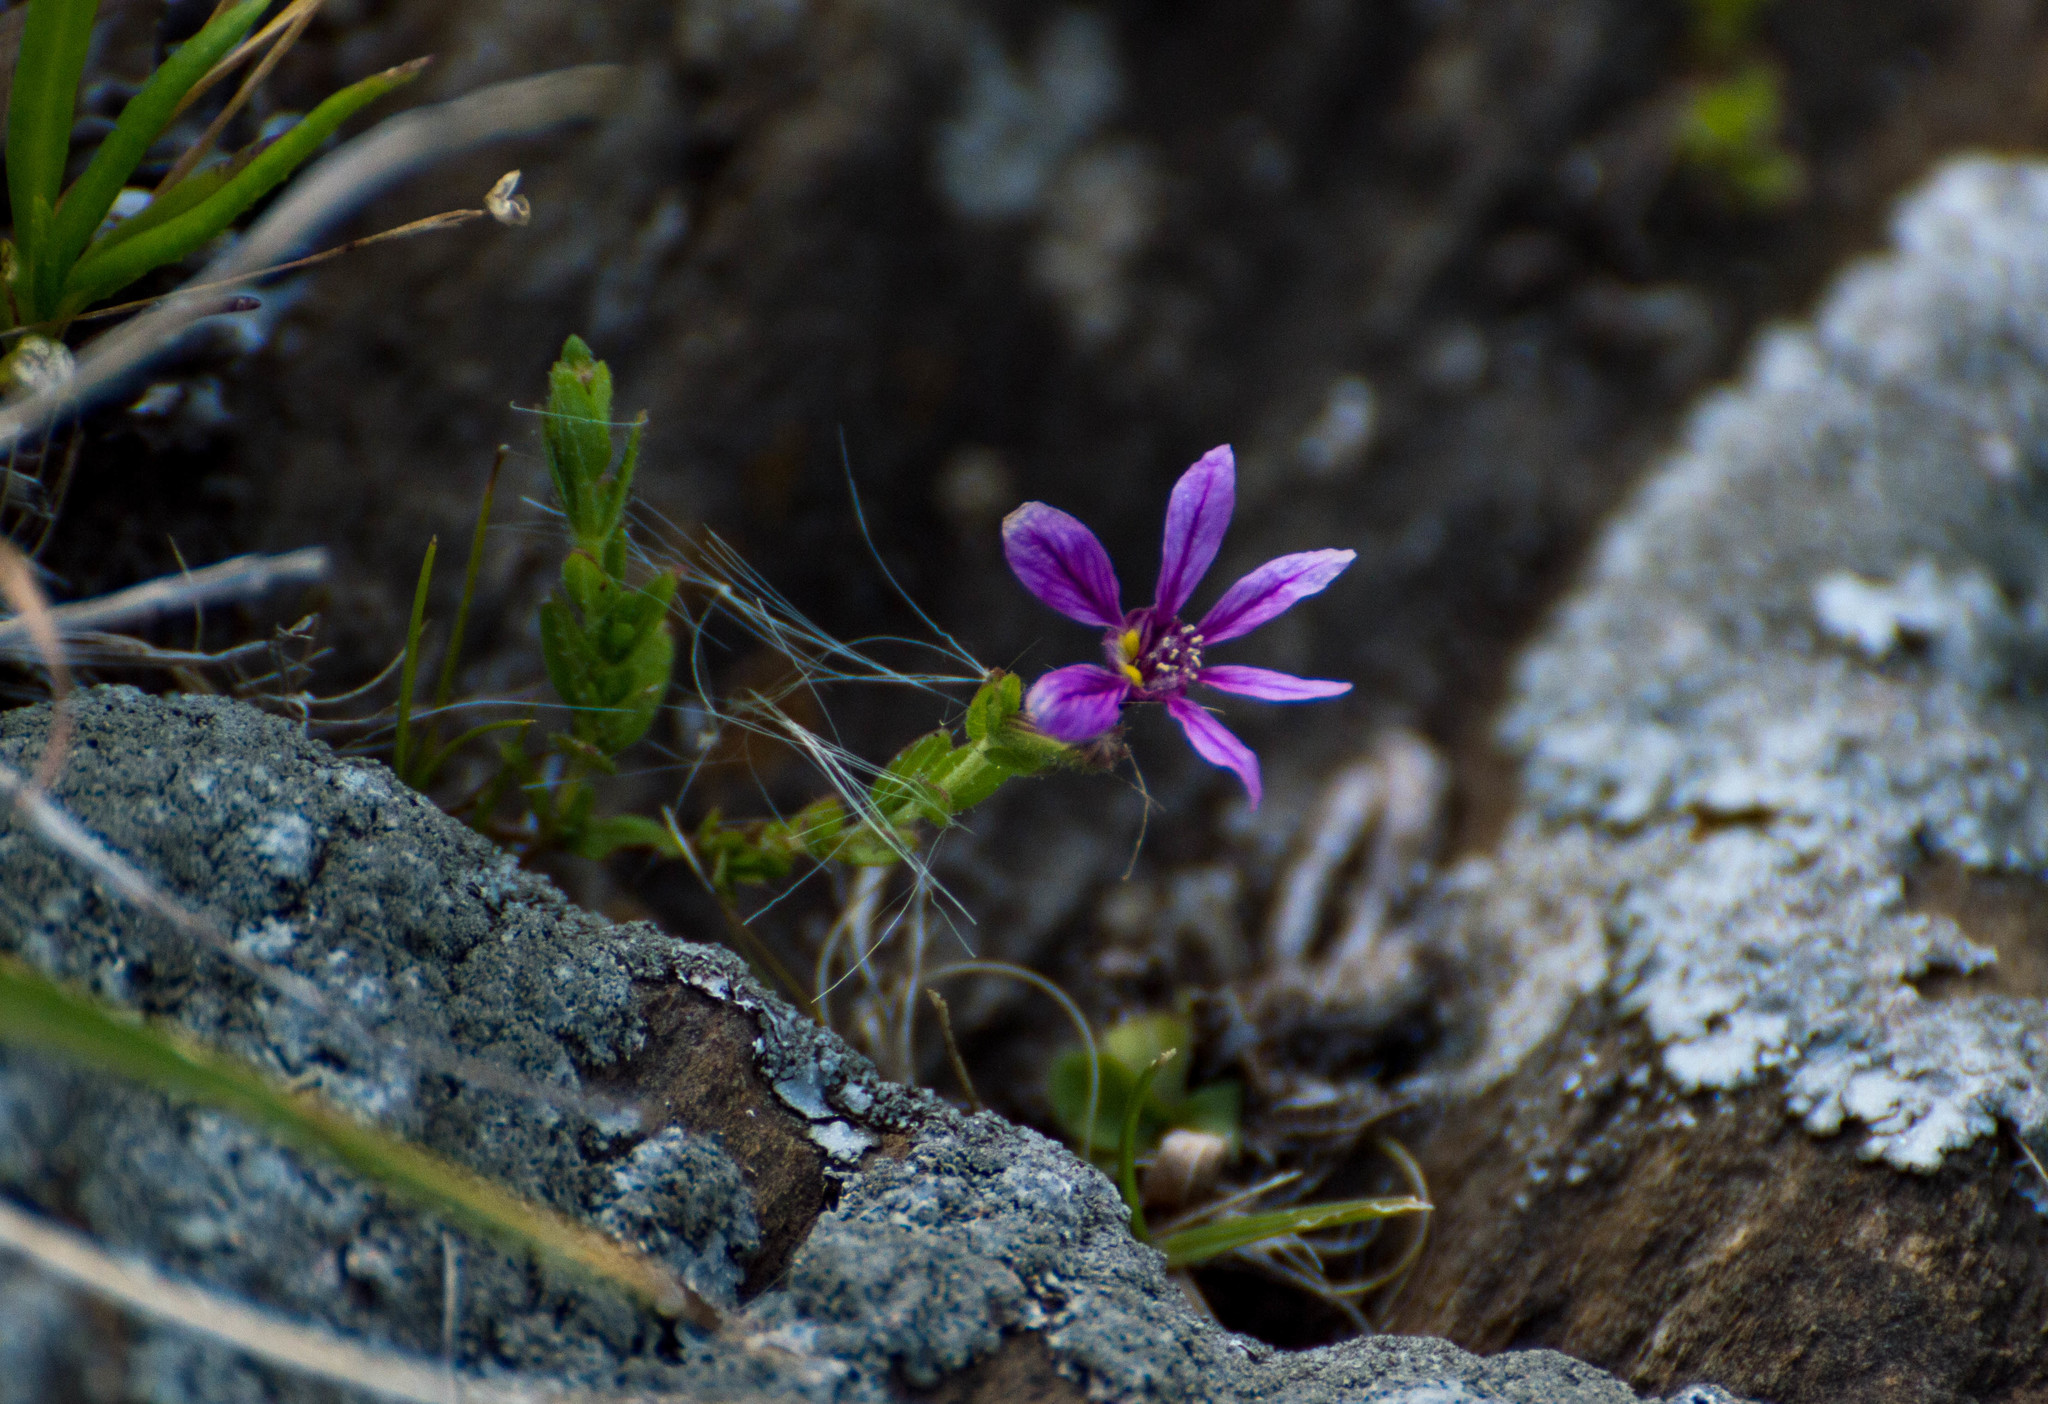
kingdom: Plantae
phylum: Tracheophyta
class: Magnoliopsida
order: Myrtales
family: Lythraceae
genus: Cuphea
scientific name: Cuphea glutinosa
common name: Sticky waxweed
